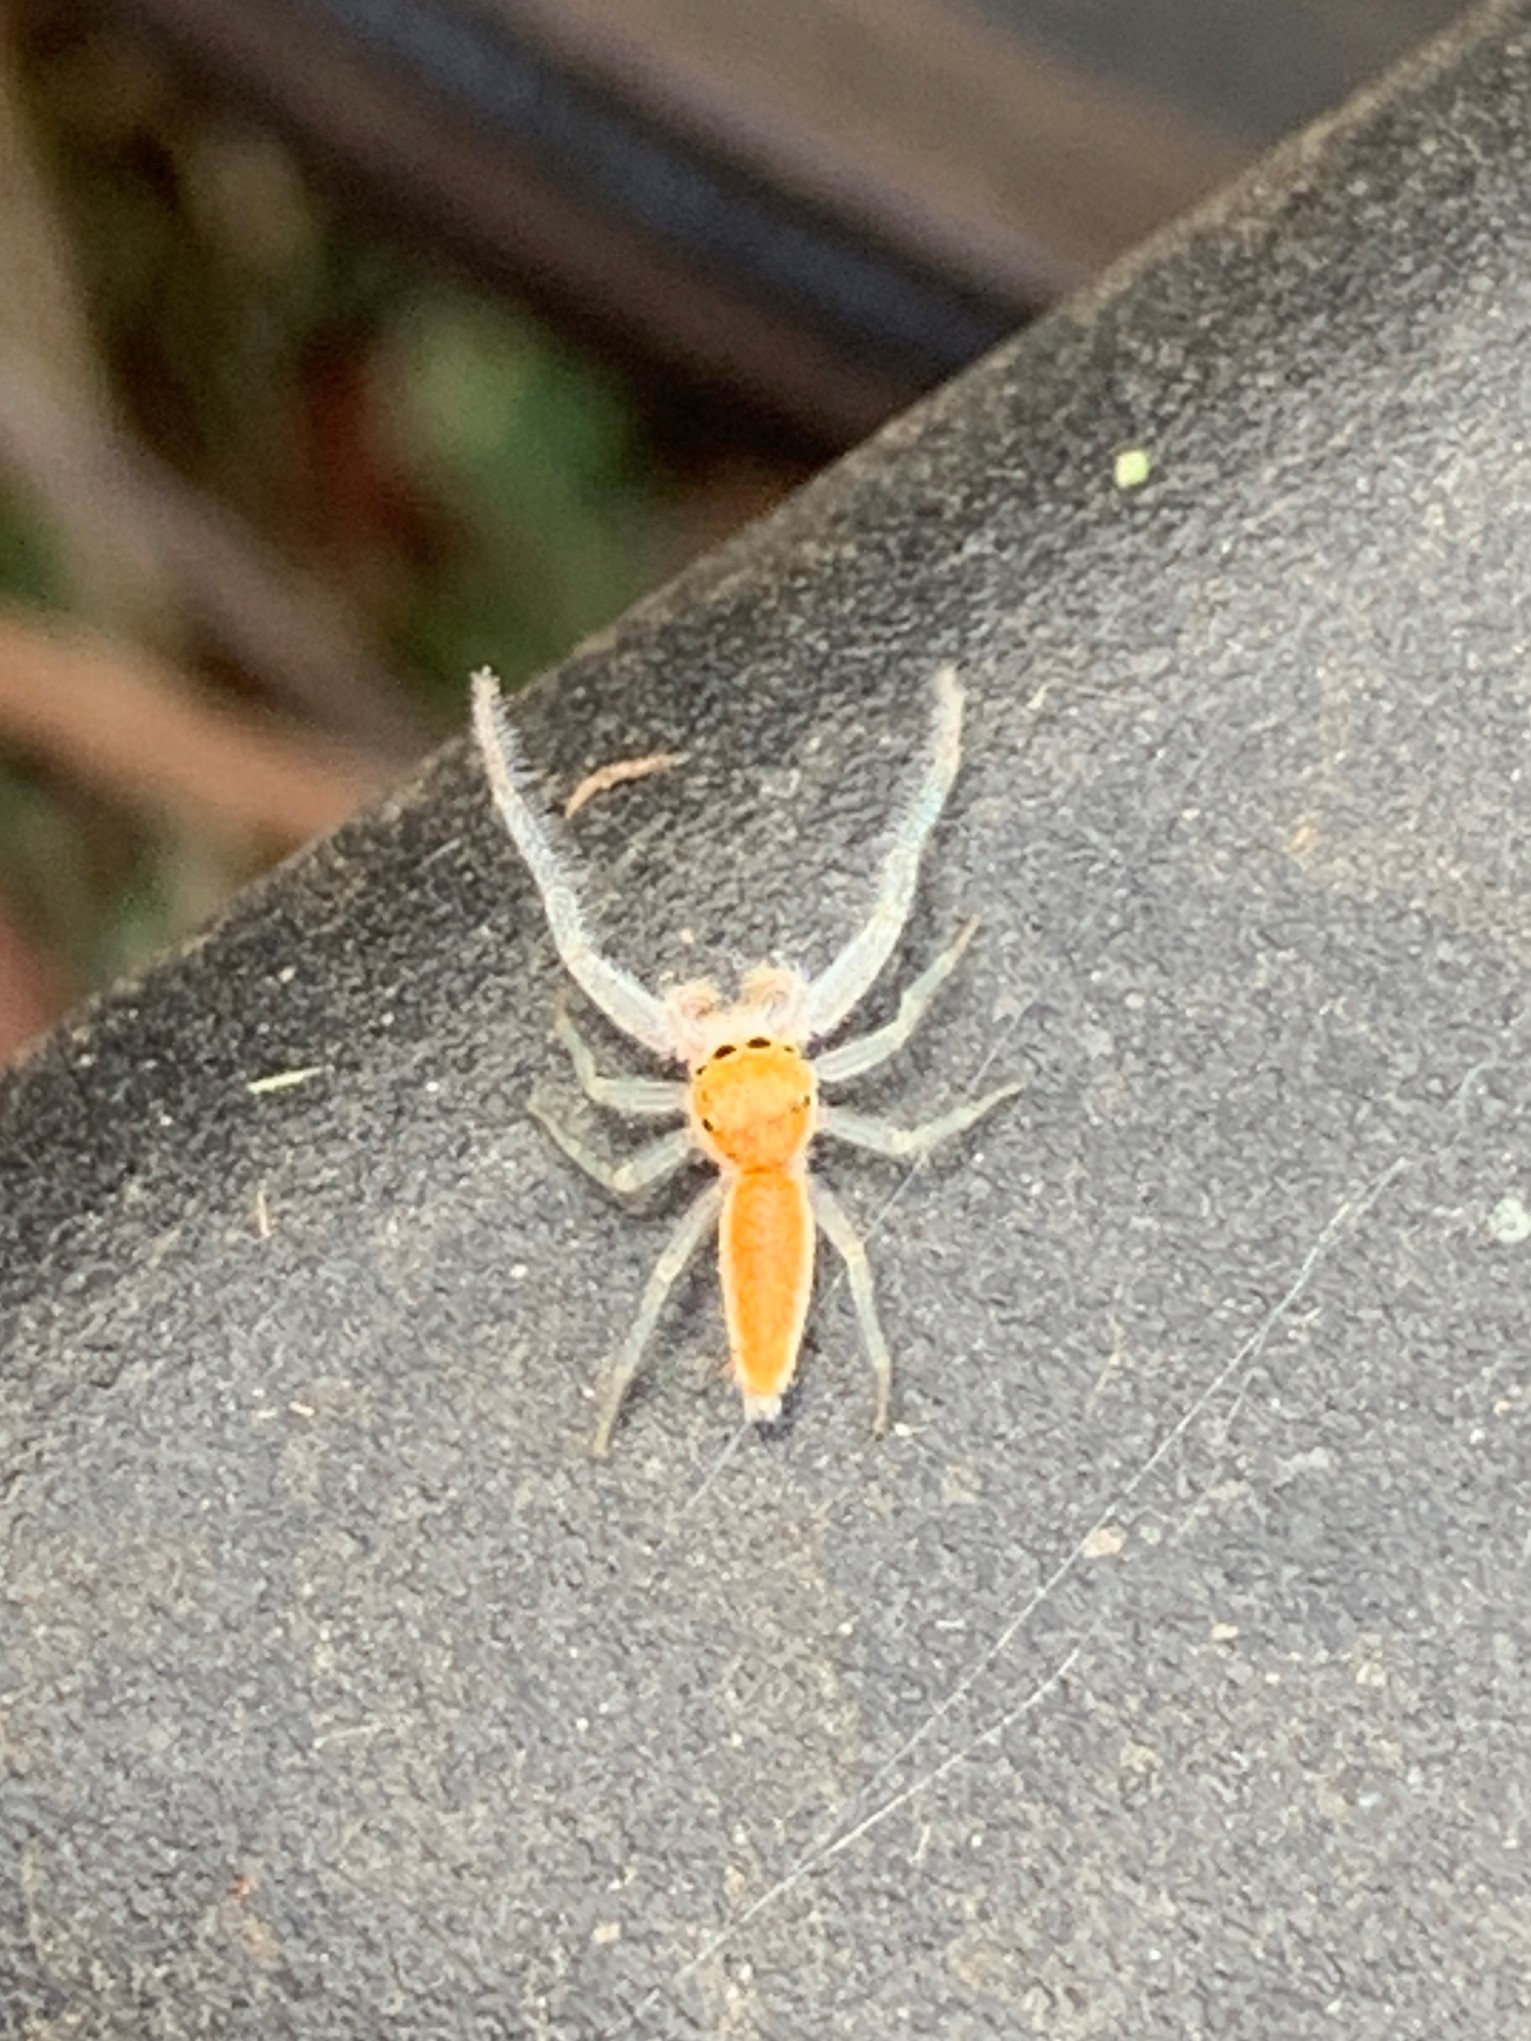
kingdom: Animalia
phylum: Arthropoda
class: Arachnida
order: Araneae
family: Salticidae
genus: Hentzia
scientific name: Hentzia mitrata
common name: White-jawed jumping spider
